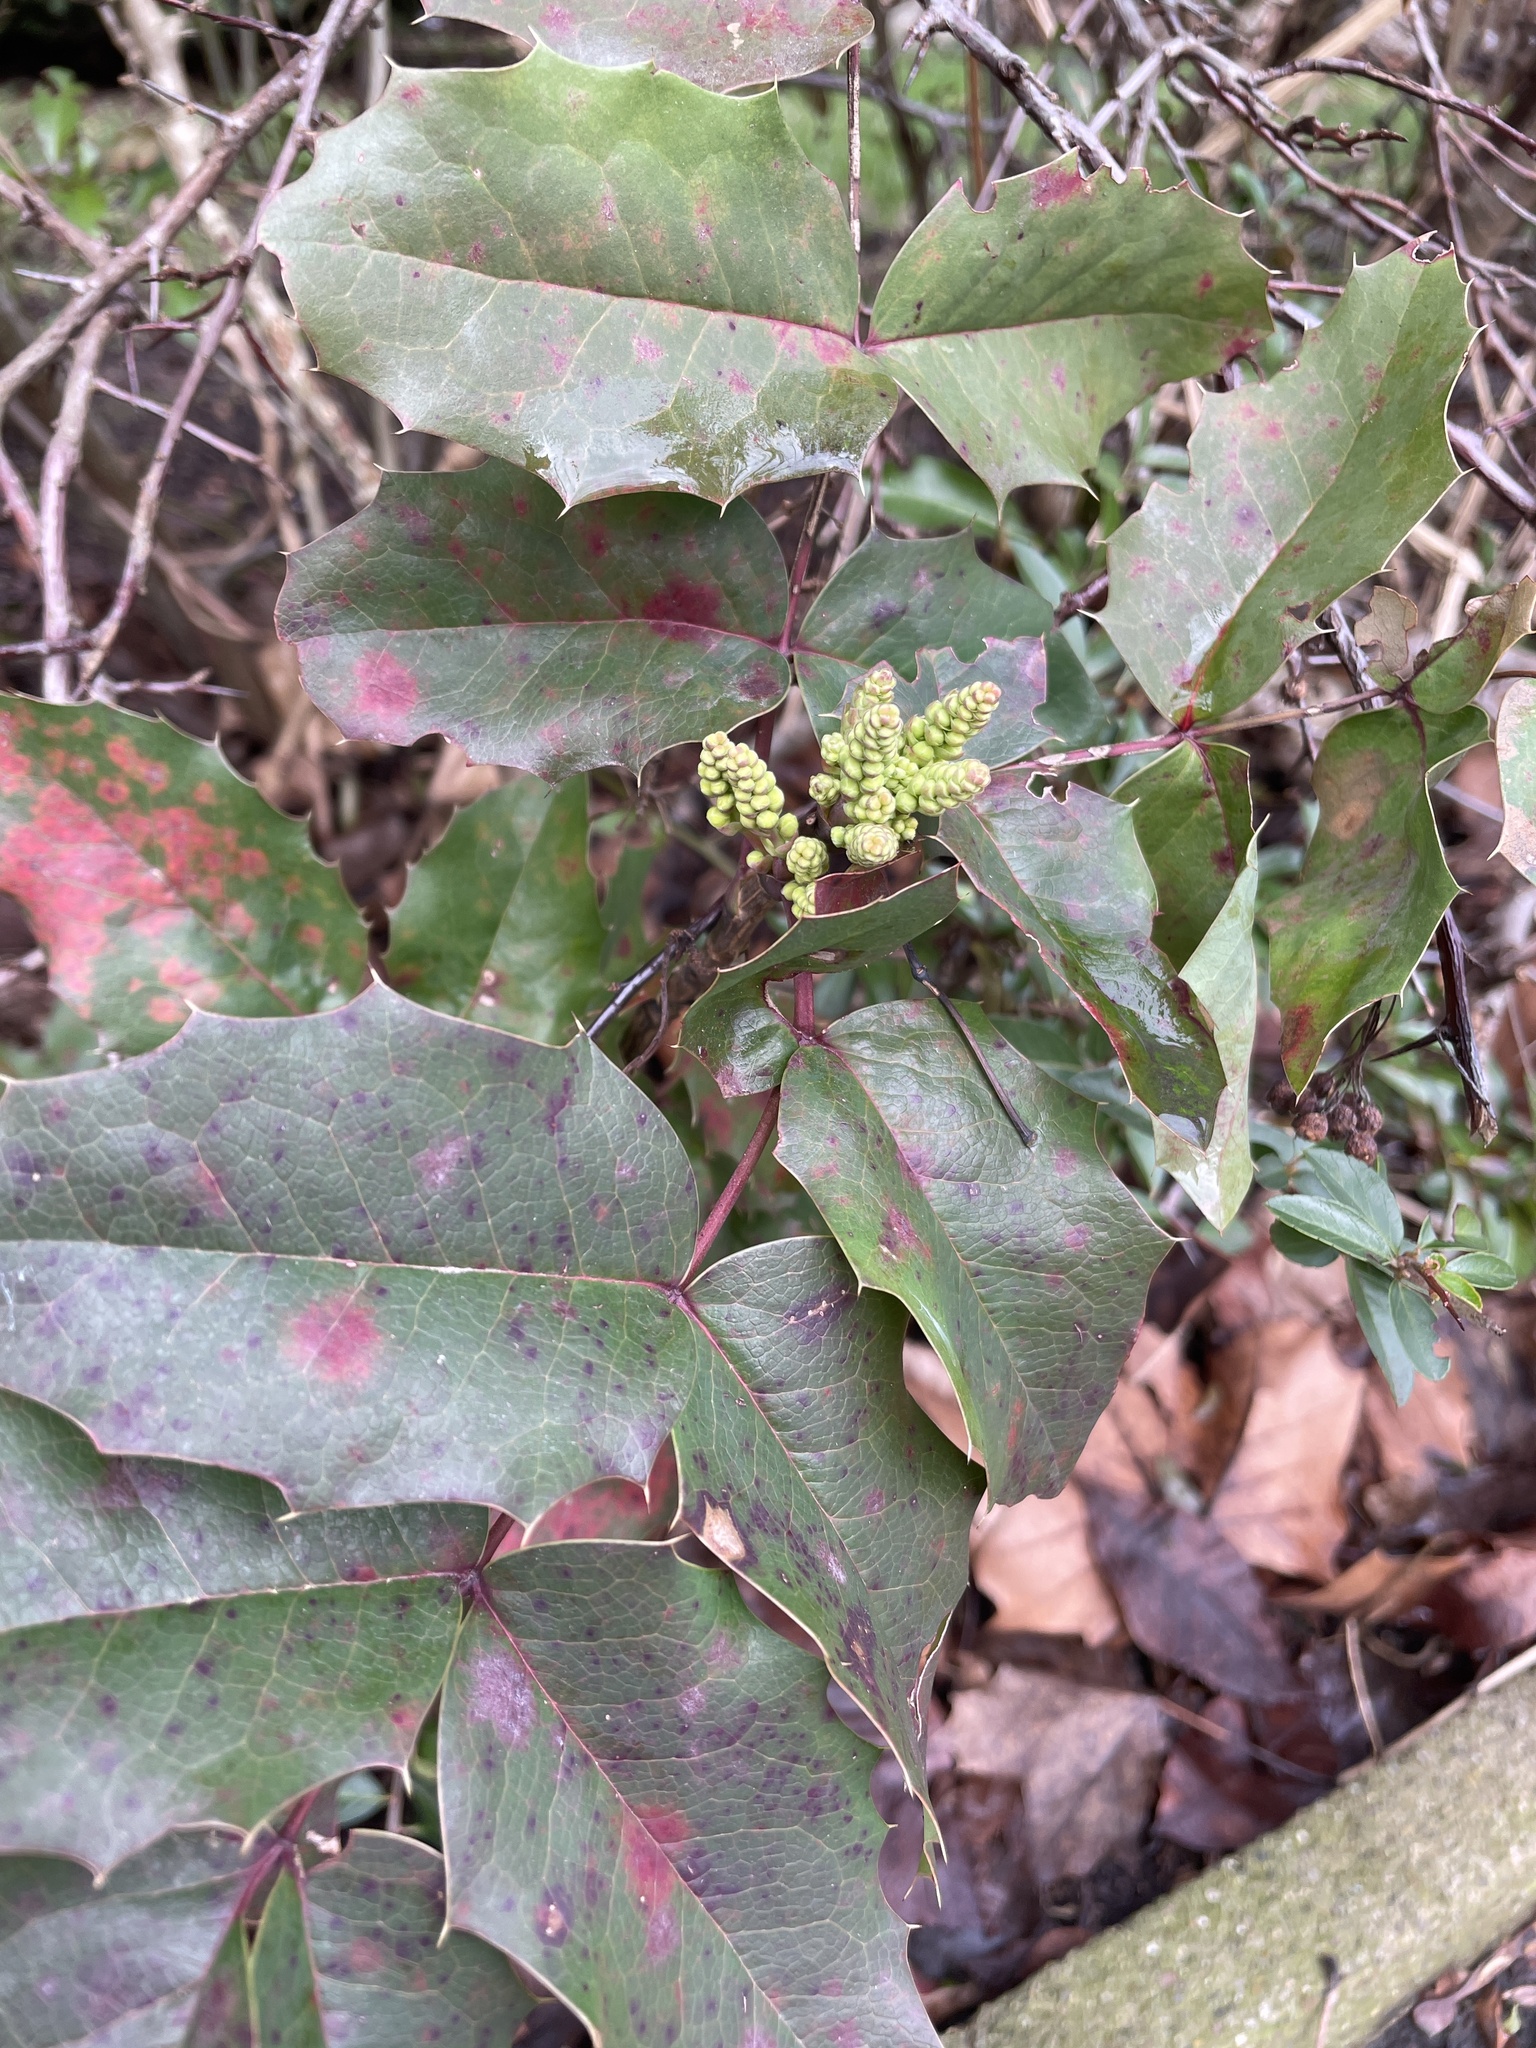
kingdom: Plantae
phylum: Tracheophyta
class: Magnoliopsida
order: Ranunculales
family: Berberidaceae
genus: Mahonia
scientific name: Mahonia aquifolium
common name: Oregon-grape
